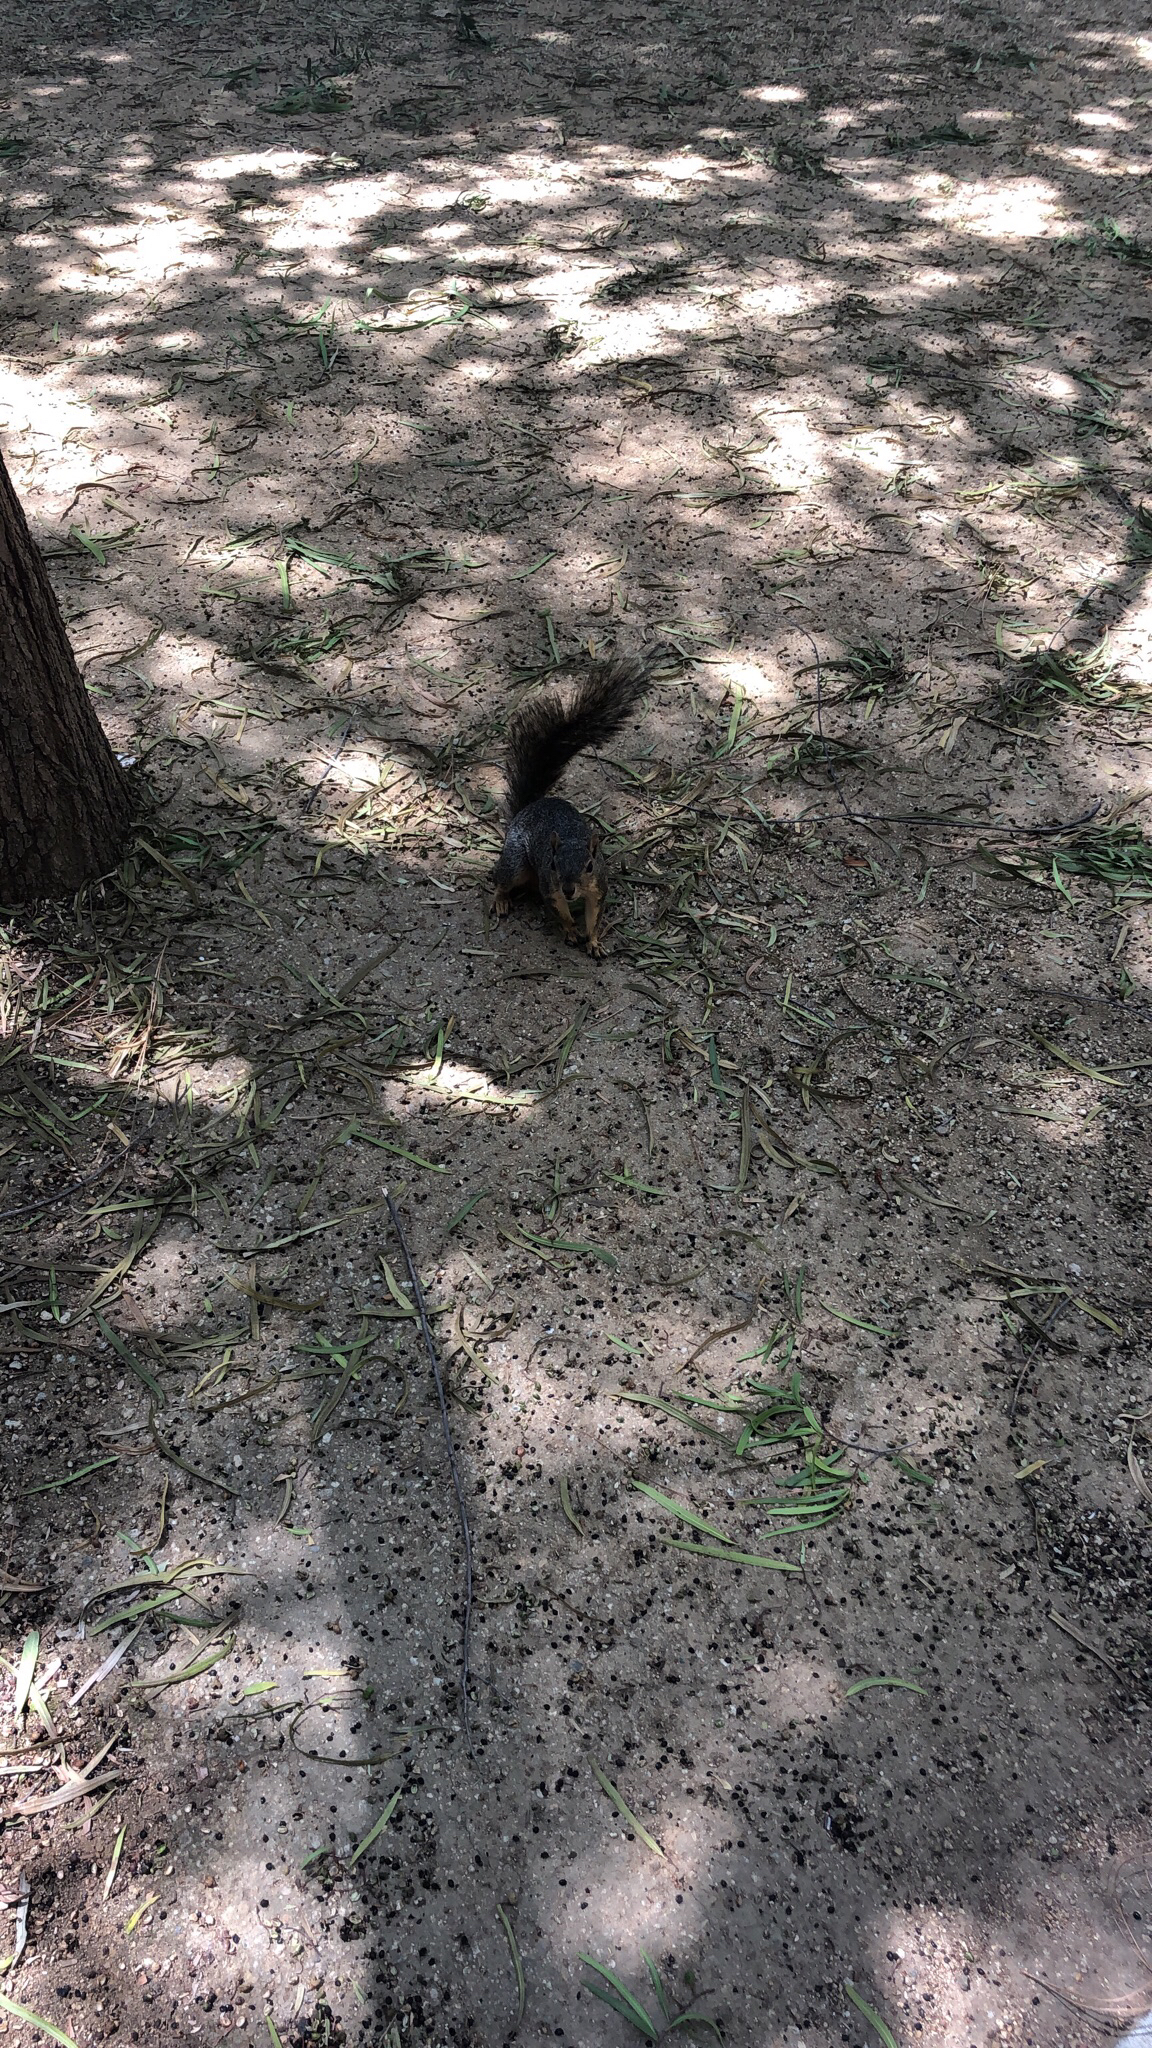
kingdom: Animalia
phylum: Chordata
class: Mammalia
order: Rodentia
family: Sciuridae
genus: Sciurus
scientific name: Sciurus niger
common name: Fox squirrel
